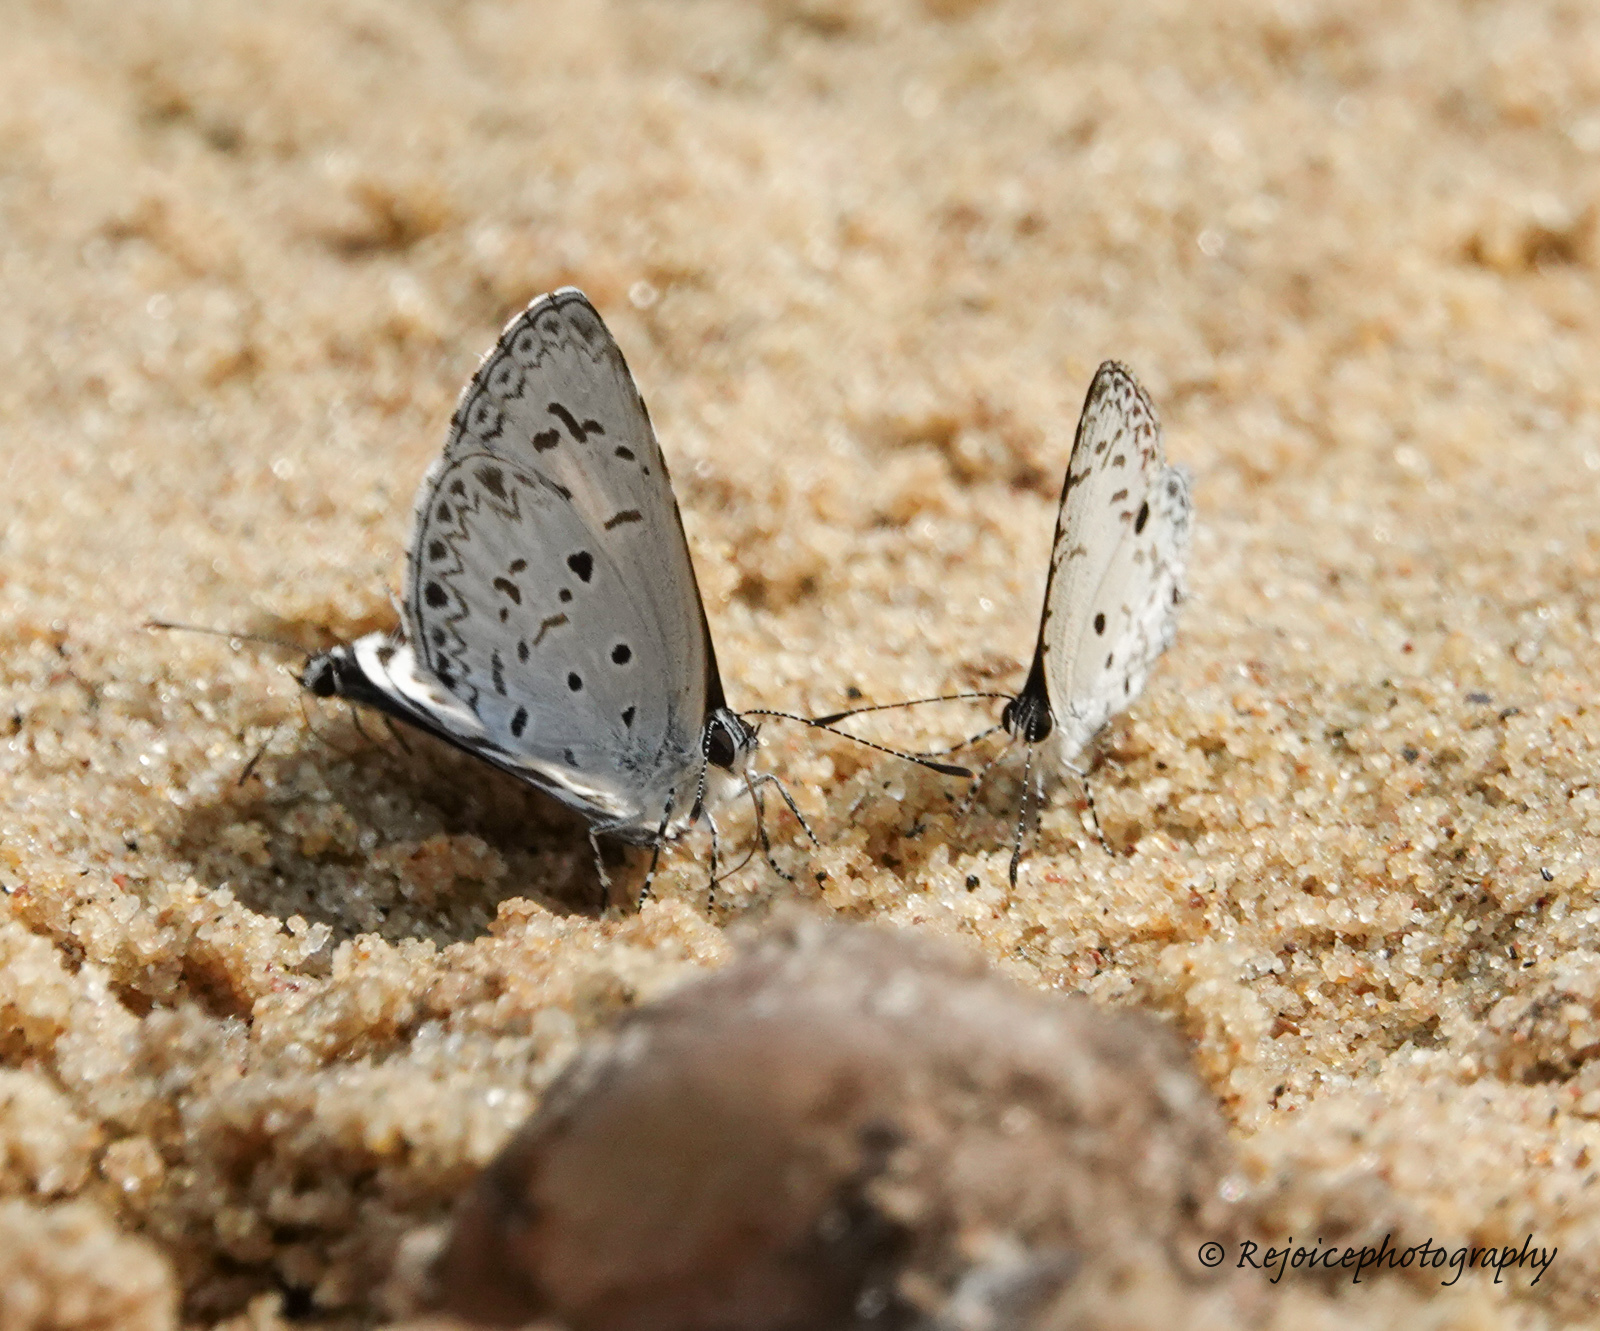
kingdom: Animalia
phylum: Arthropoda
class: Insecta
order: Lepidoptera
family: Lycaenidae
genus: Acytolepis
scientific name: Acytolepis puspa
